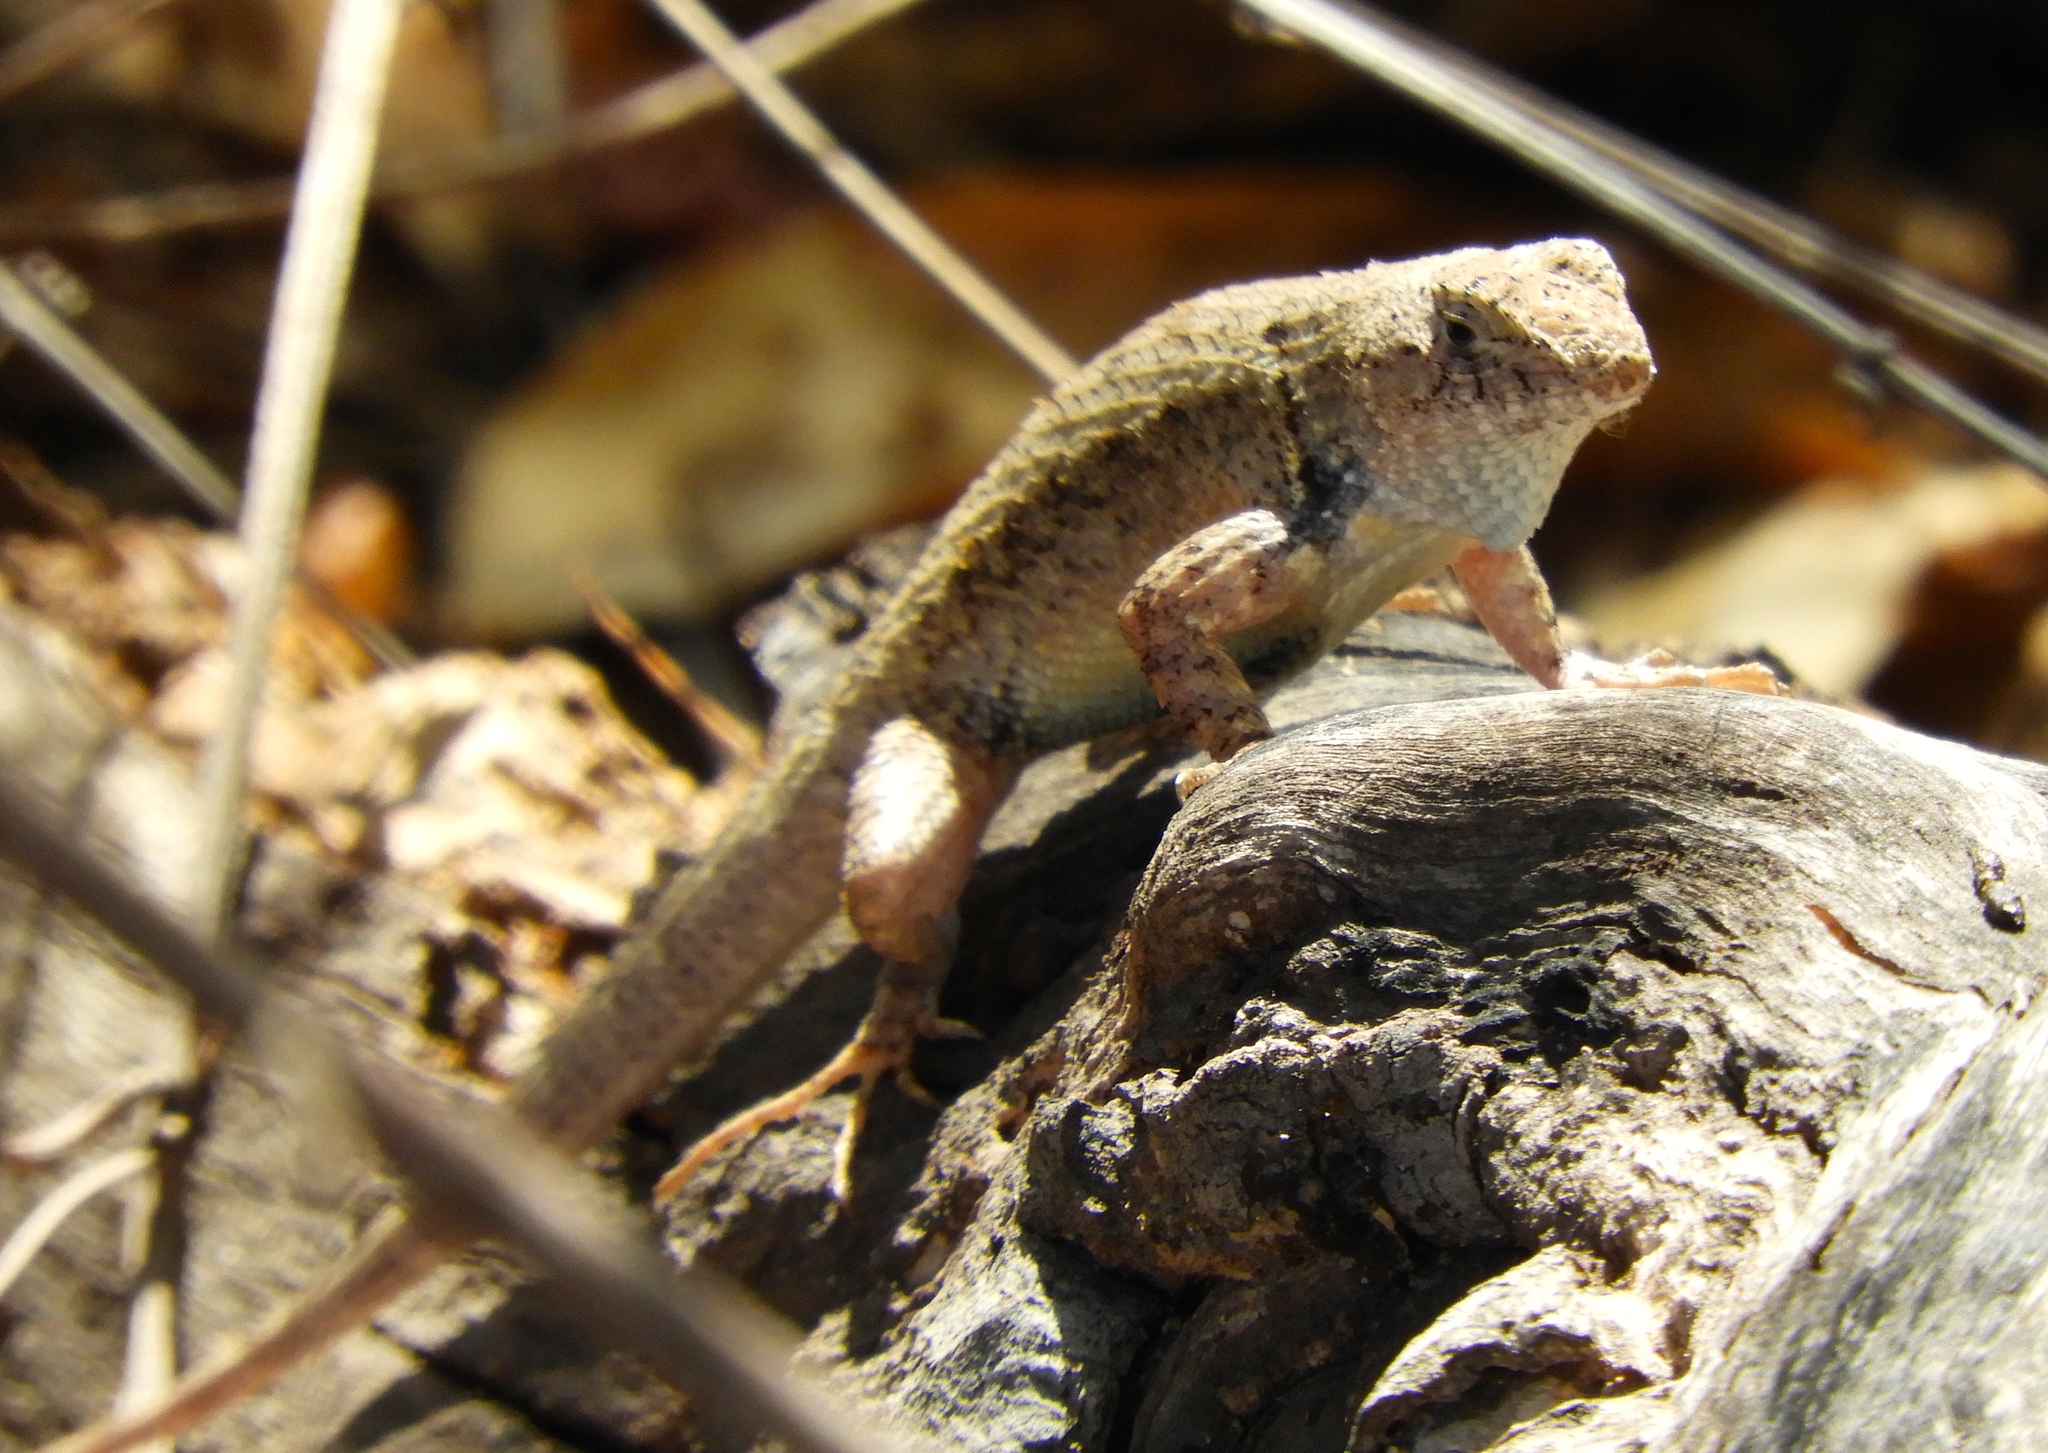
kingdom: Animalia
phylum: Chordata
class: Squamata
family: Phrynosomatidae
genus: Sceloporus
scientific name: Sceloporus nelsoni
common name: Nelson's spiny lizard
